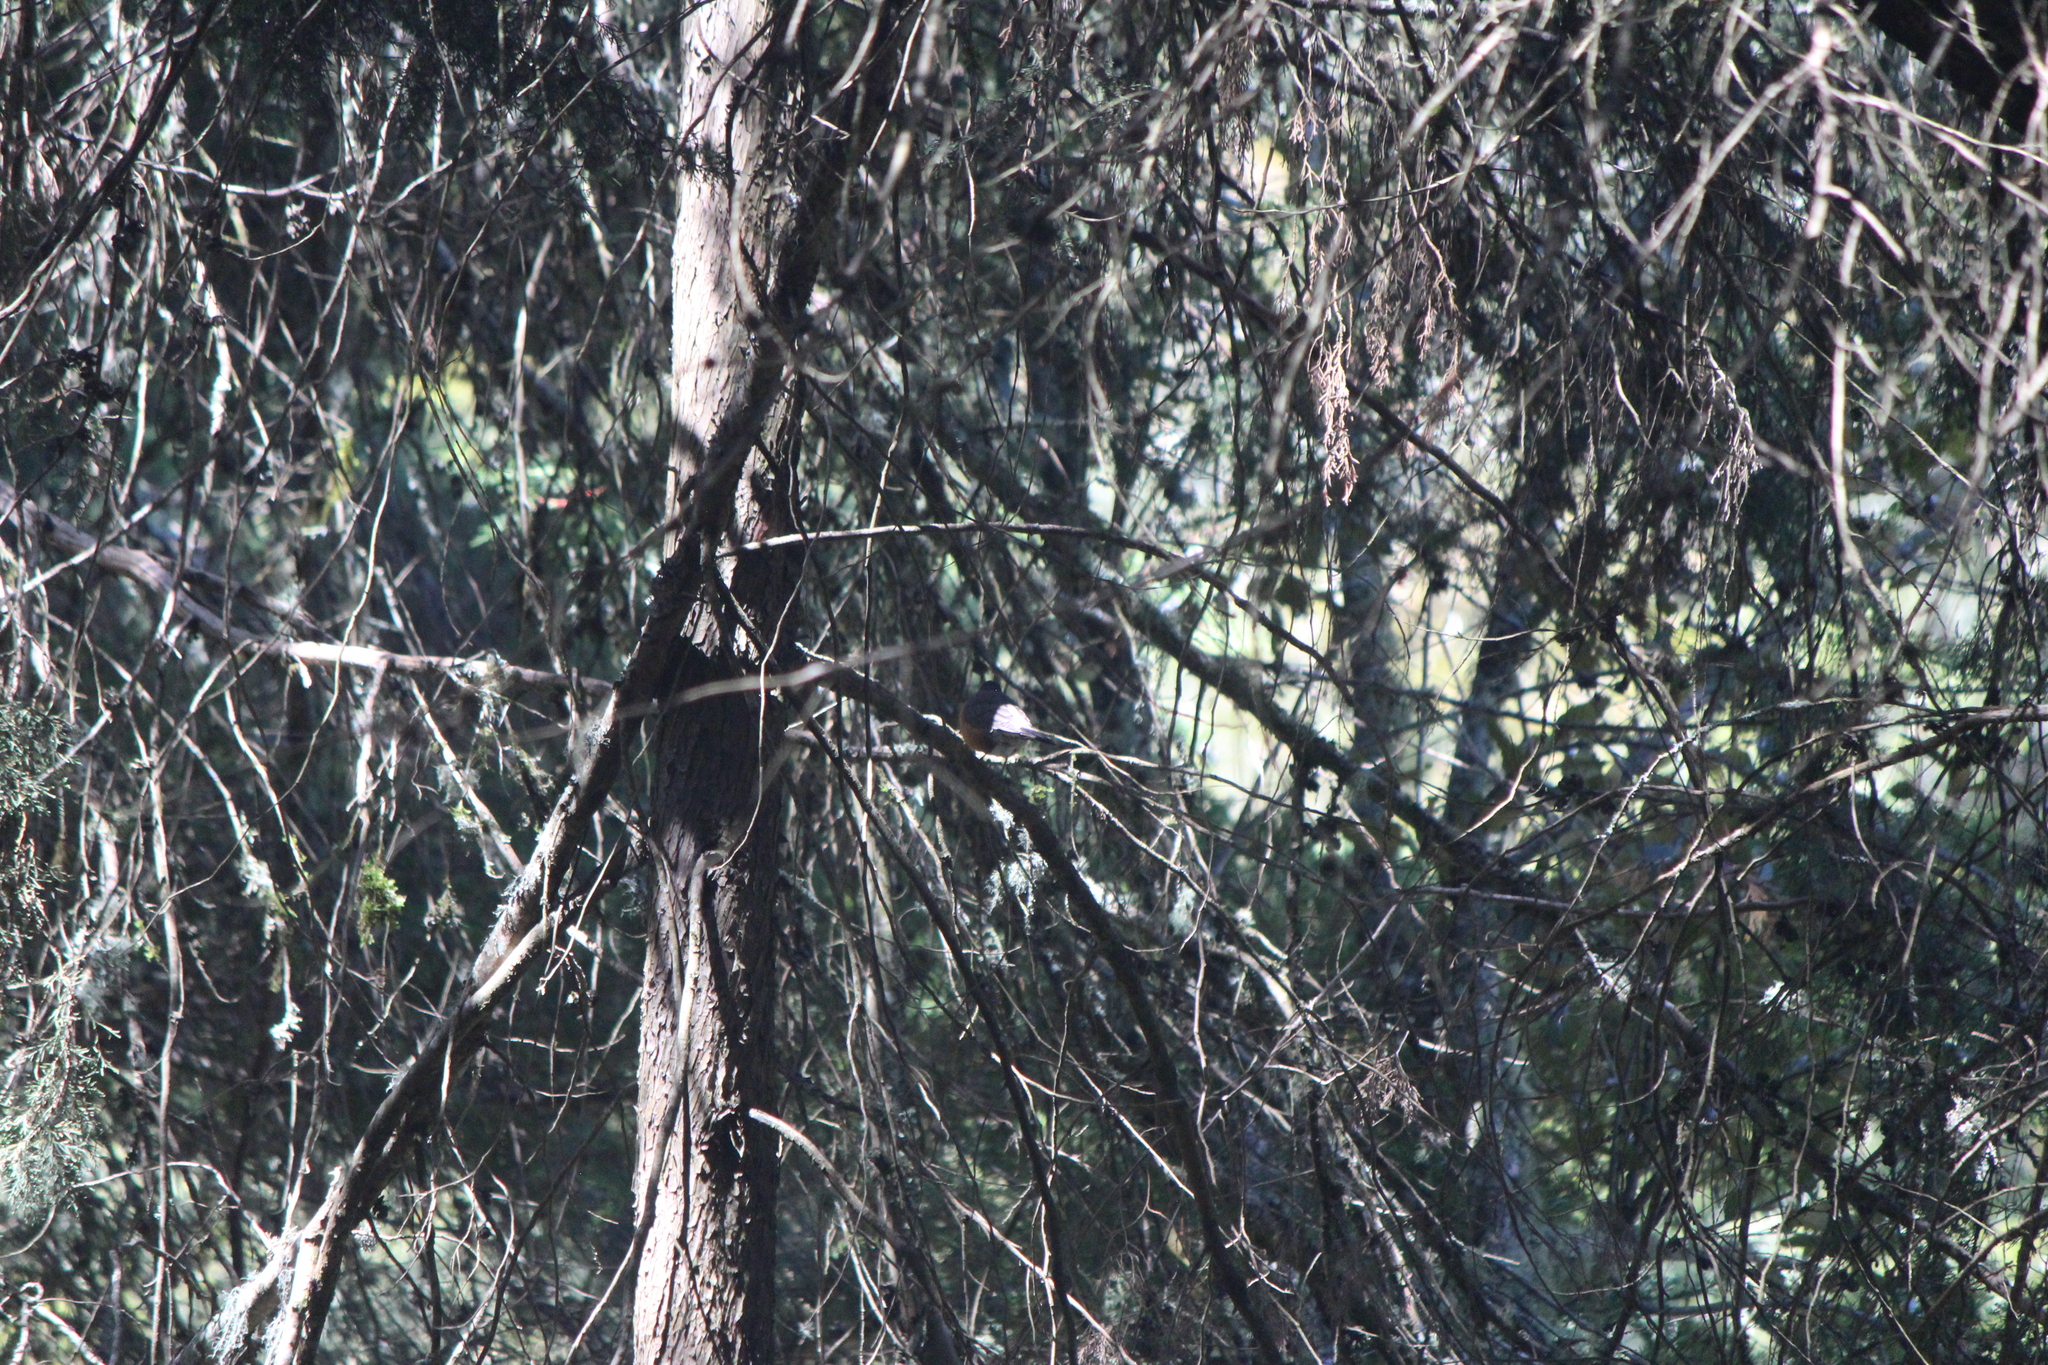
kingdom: Animalia
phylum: Chordata
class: Aves
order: Passeriformes
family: Turdidae
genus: Turdus
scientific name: Turdus migratorius
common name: American robin
